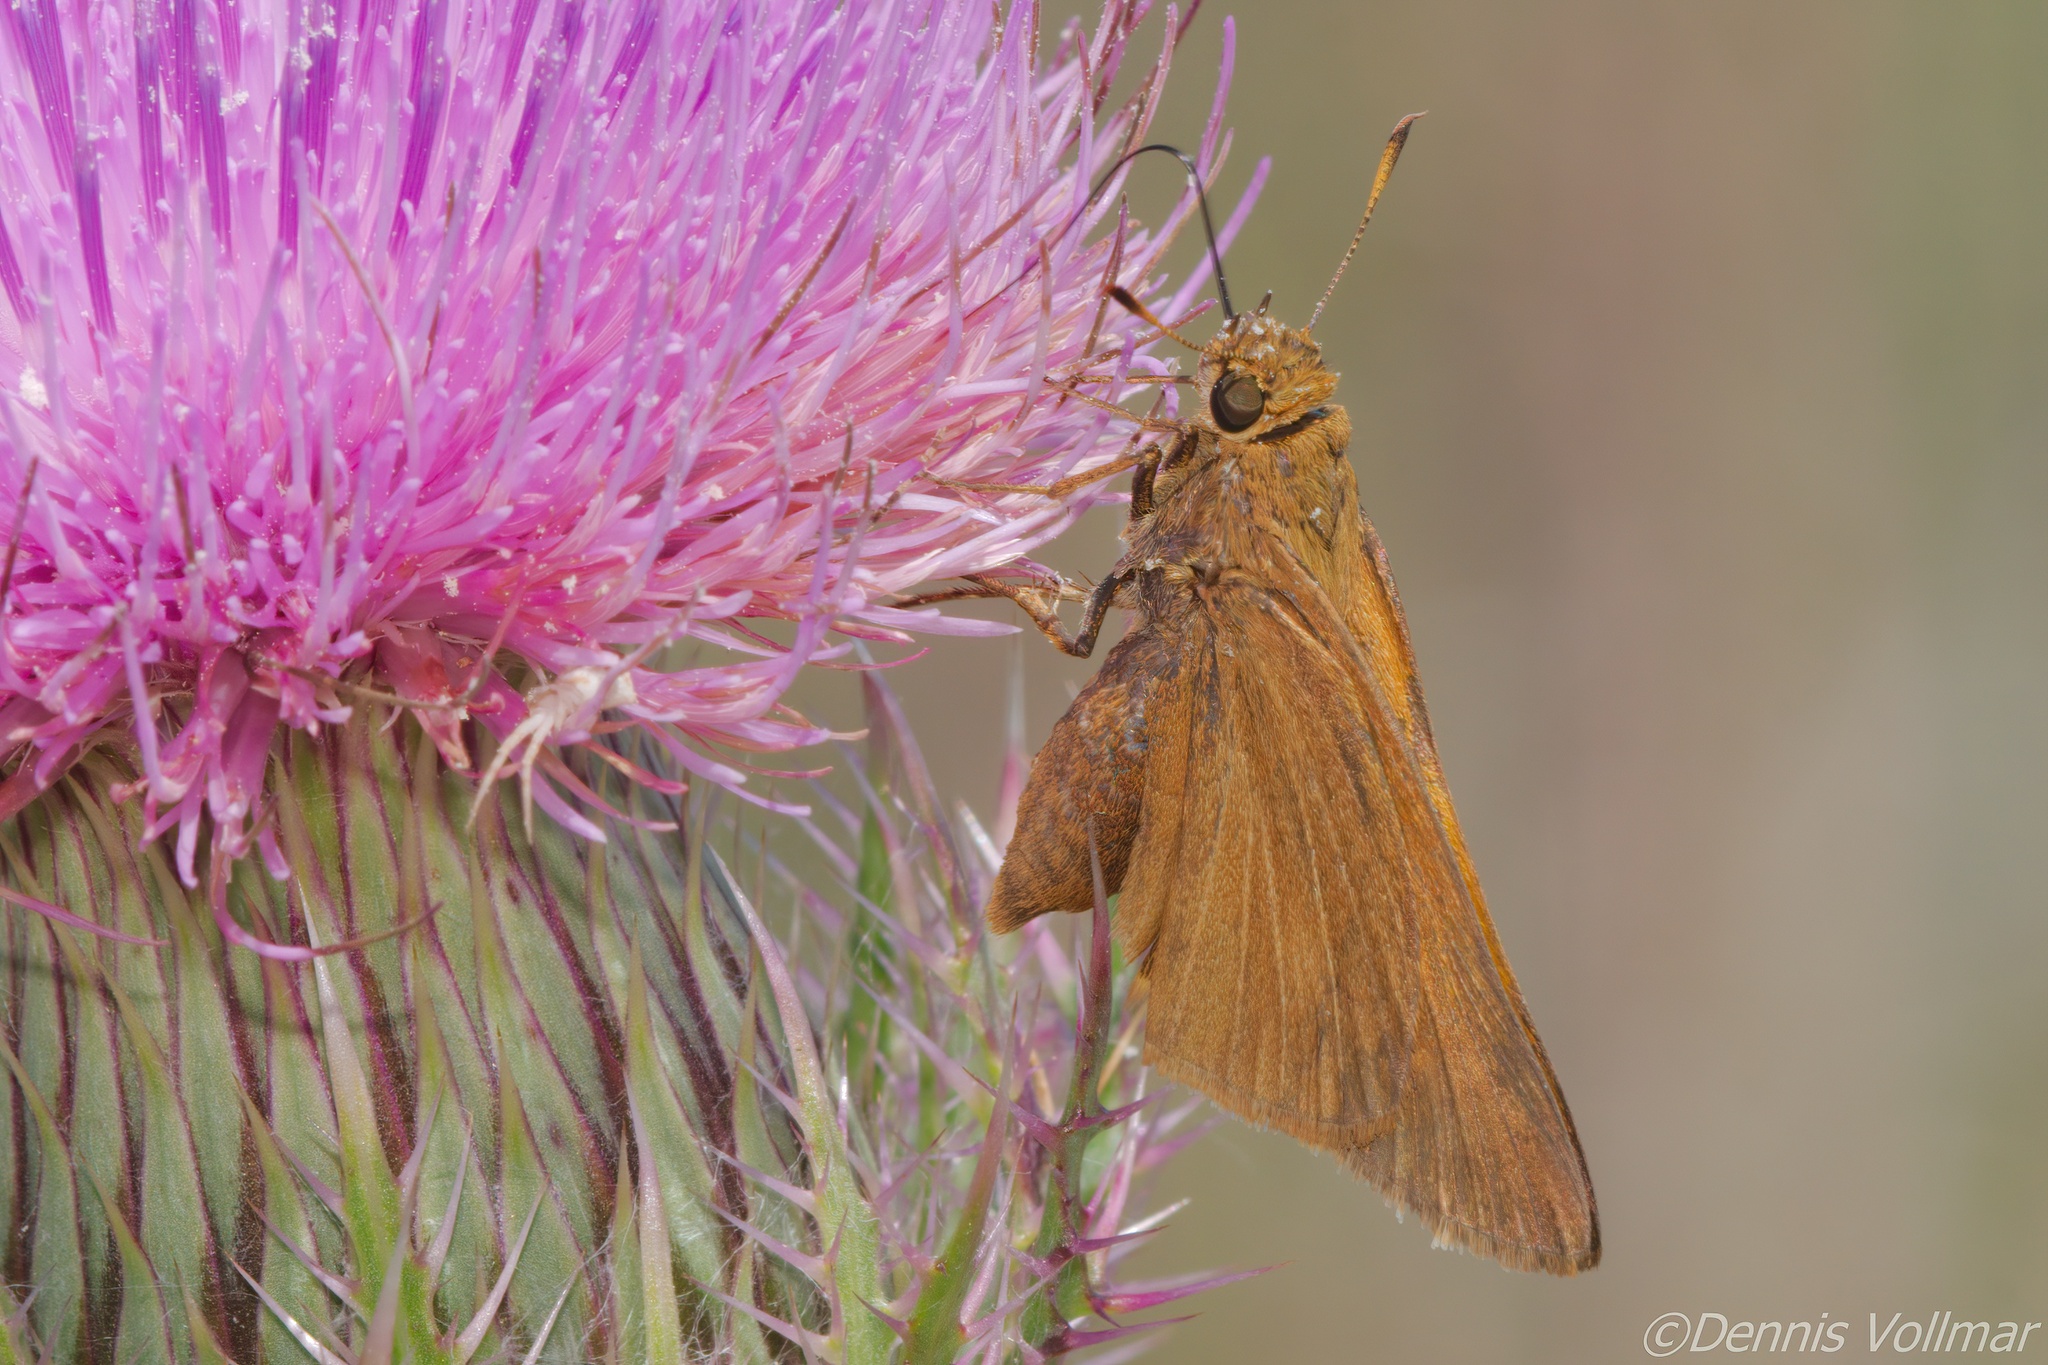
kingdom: Animalia
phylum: Arthropoda
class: Insecta
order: Lepidoptera
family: Hesperiidae
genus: Euphyes
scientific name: Euphyes pilatka
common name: Palatka skipper
